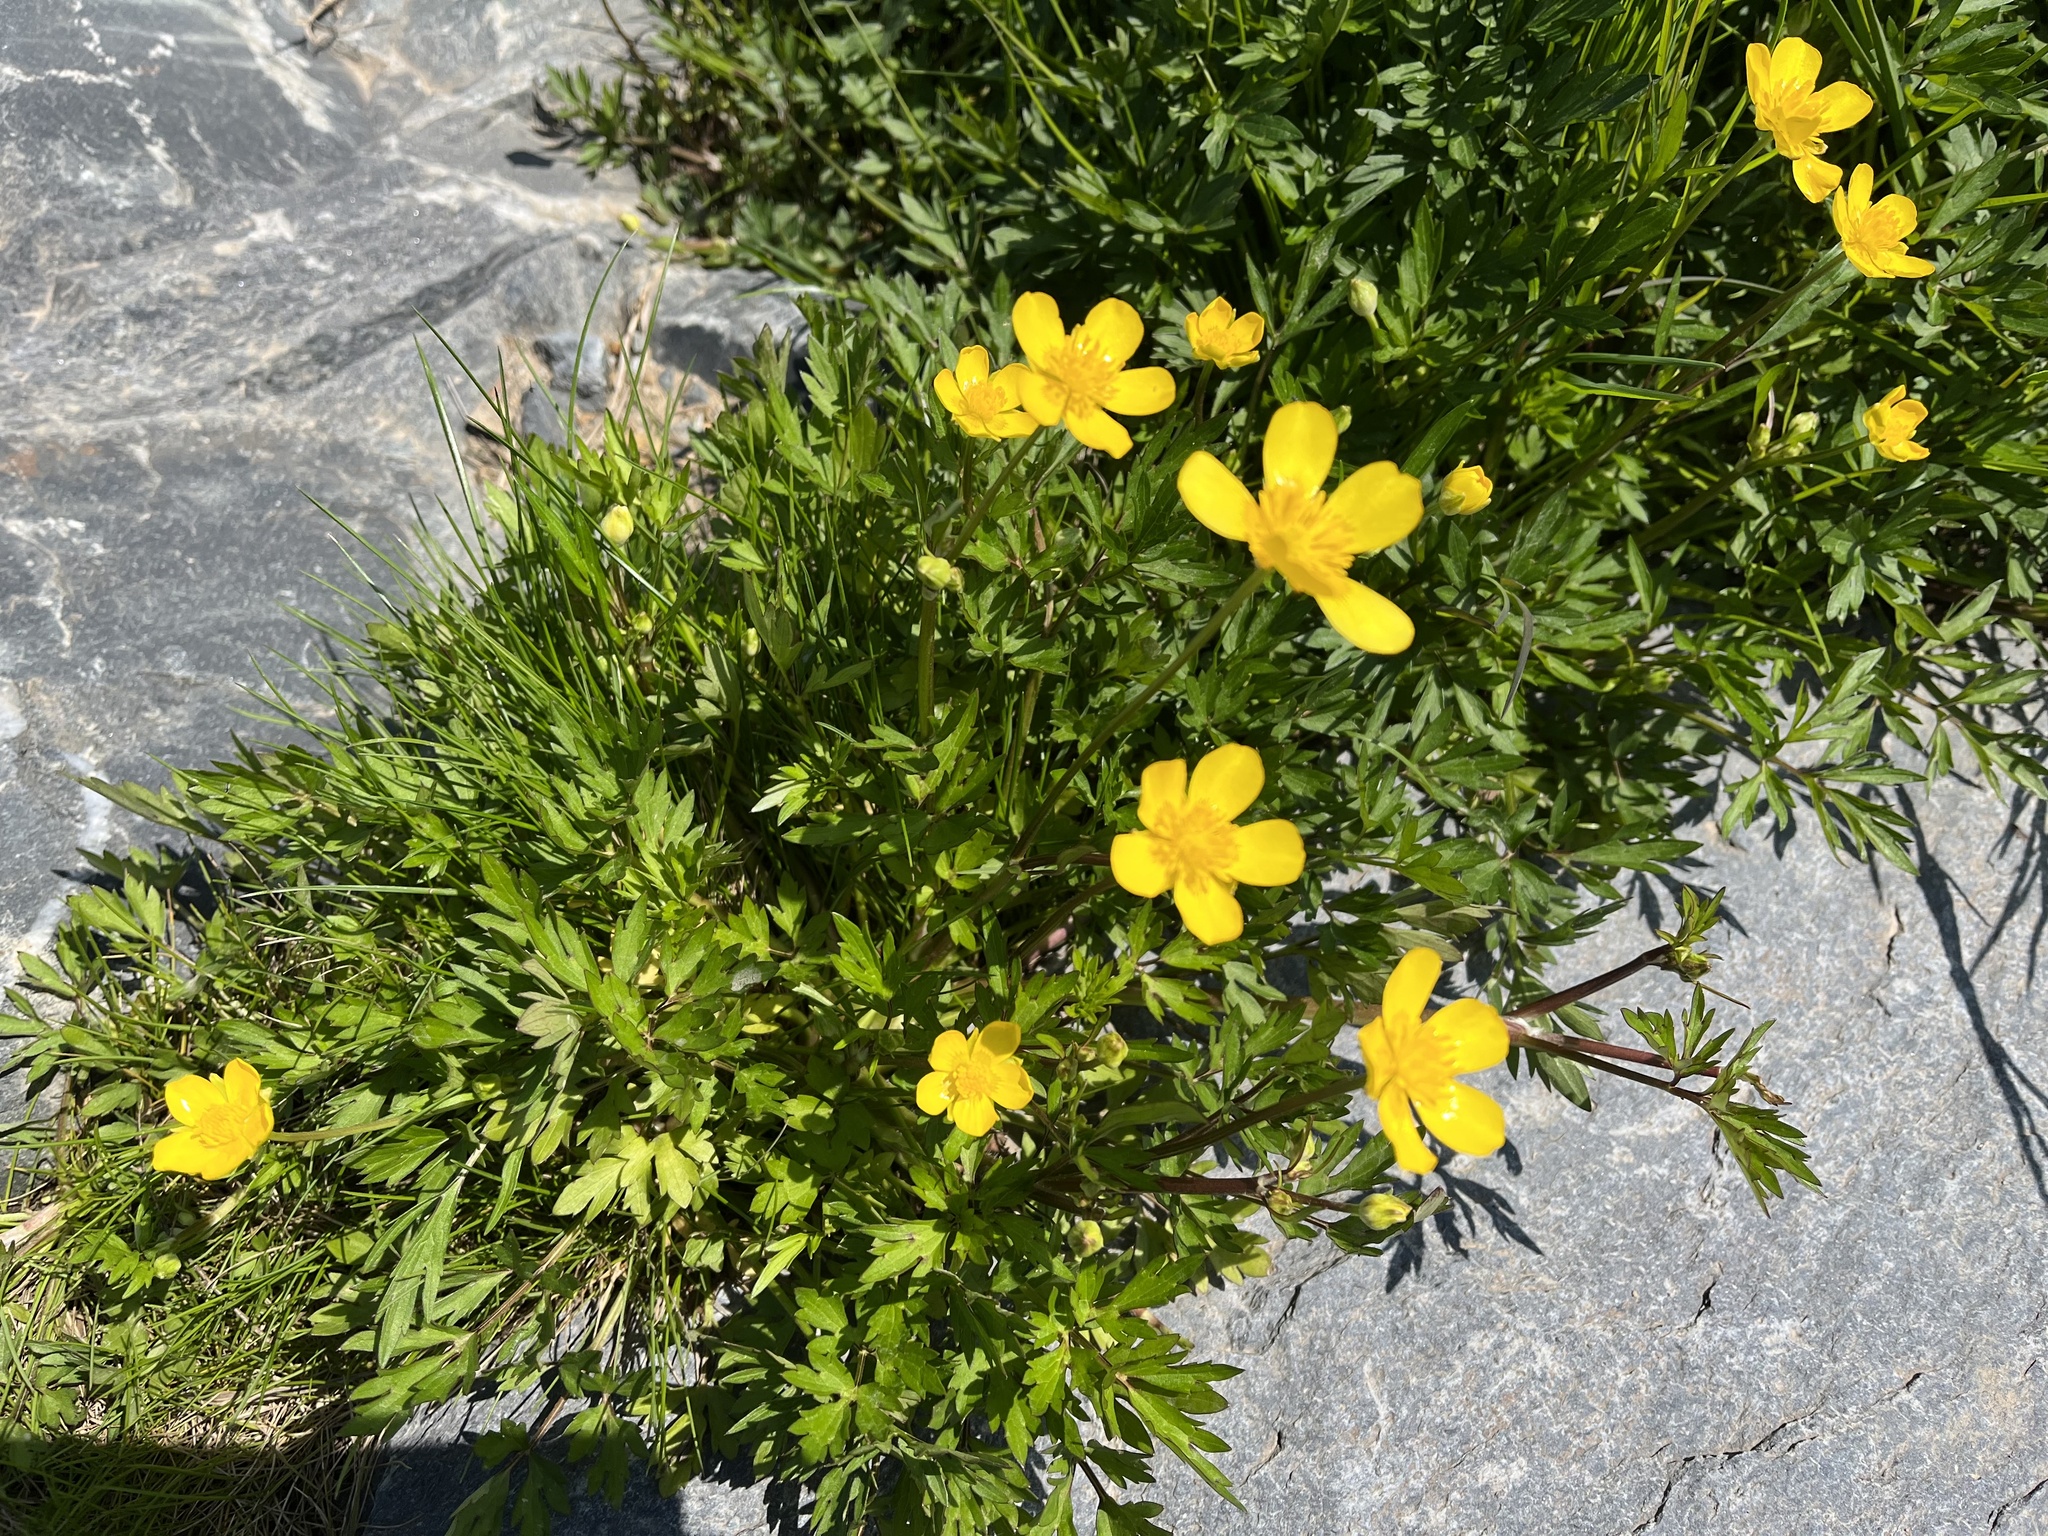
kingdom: Plantae
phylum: Tracheophyta
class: Magnoliopsida
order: Ranunculales
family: Ranunculaceae
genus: Ranunculus
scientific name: Ranunculus repens
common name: Creeping buttercup
